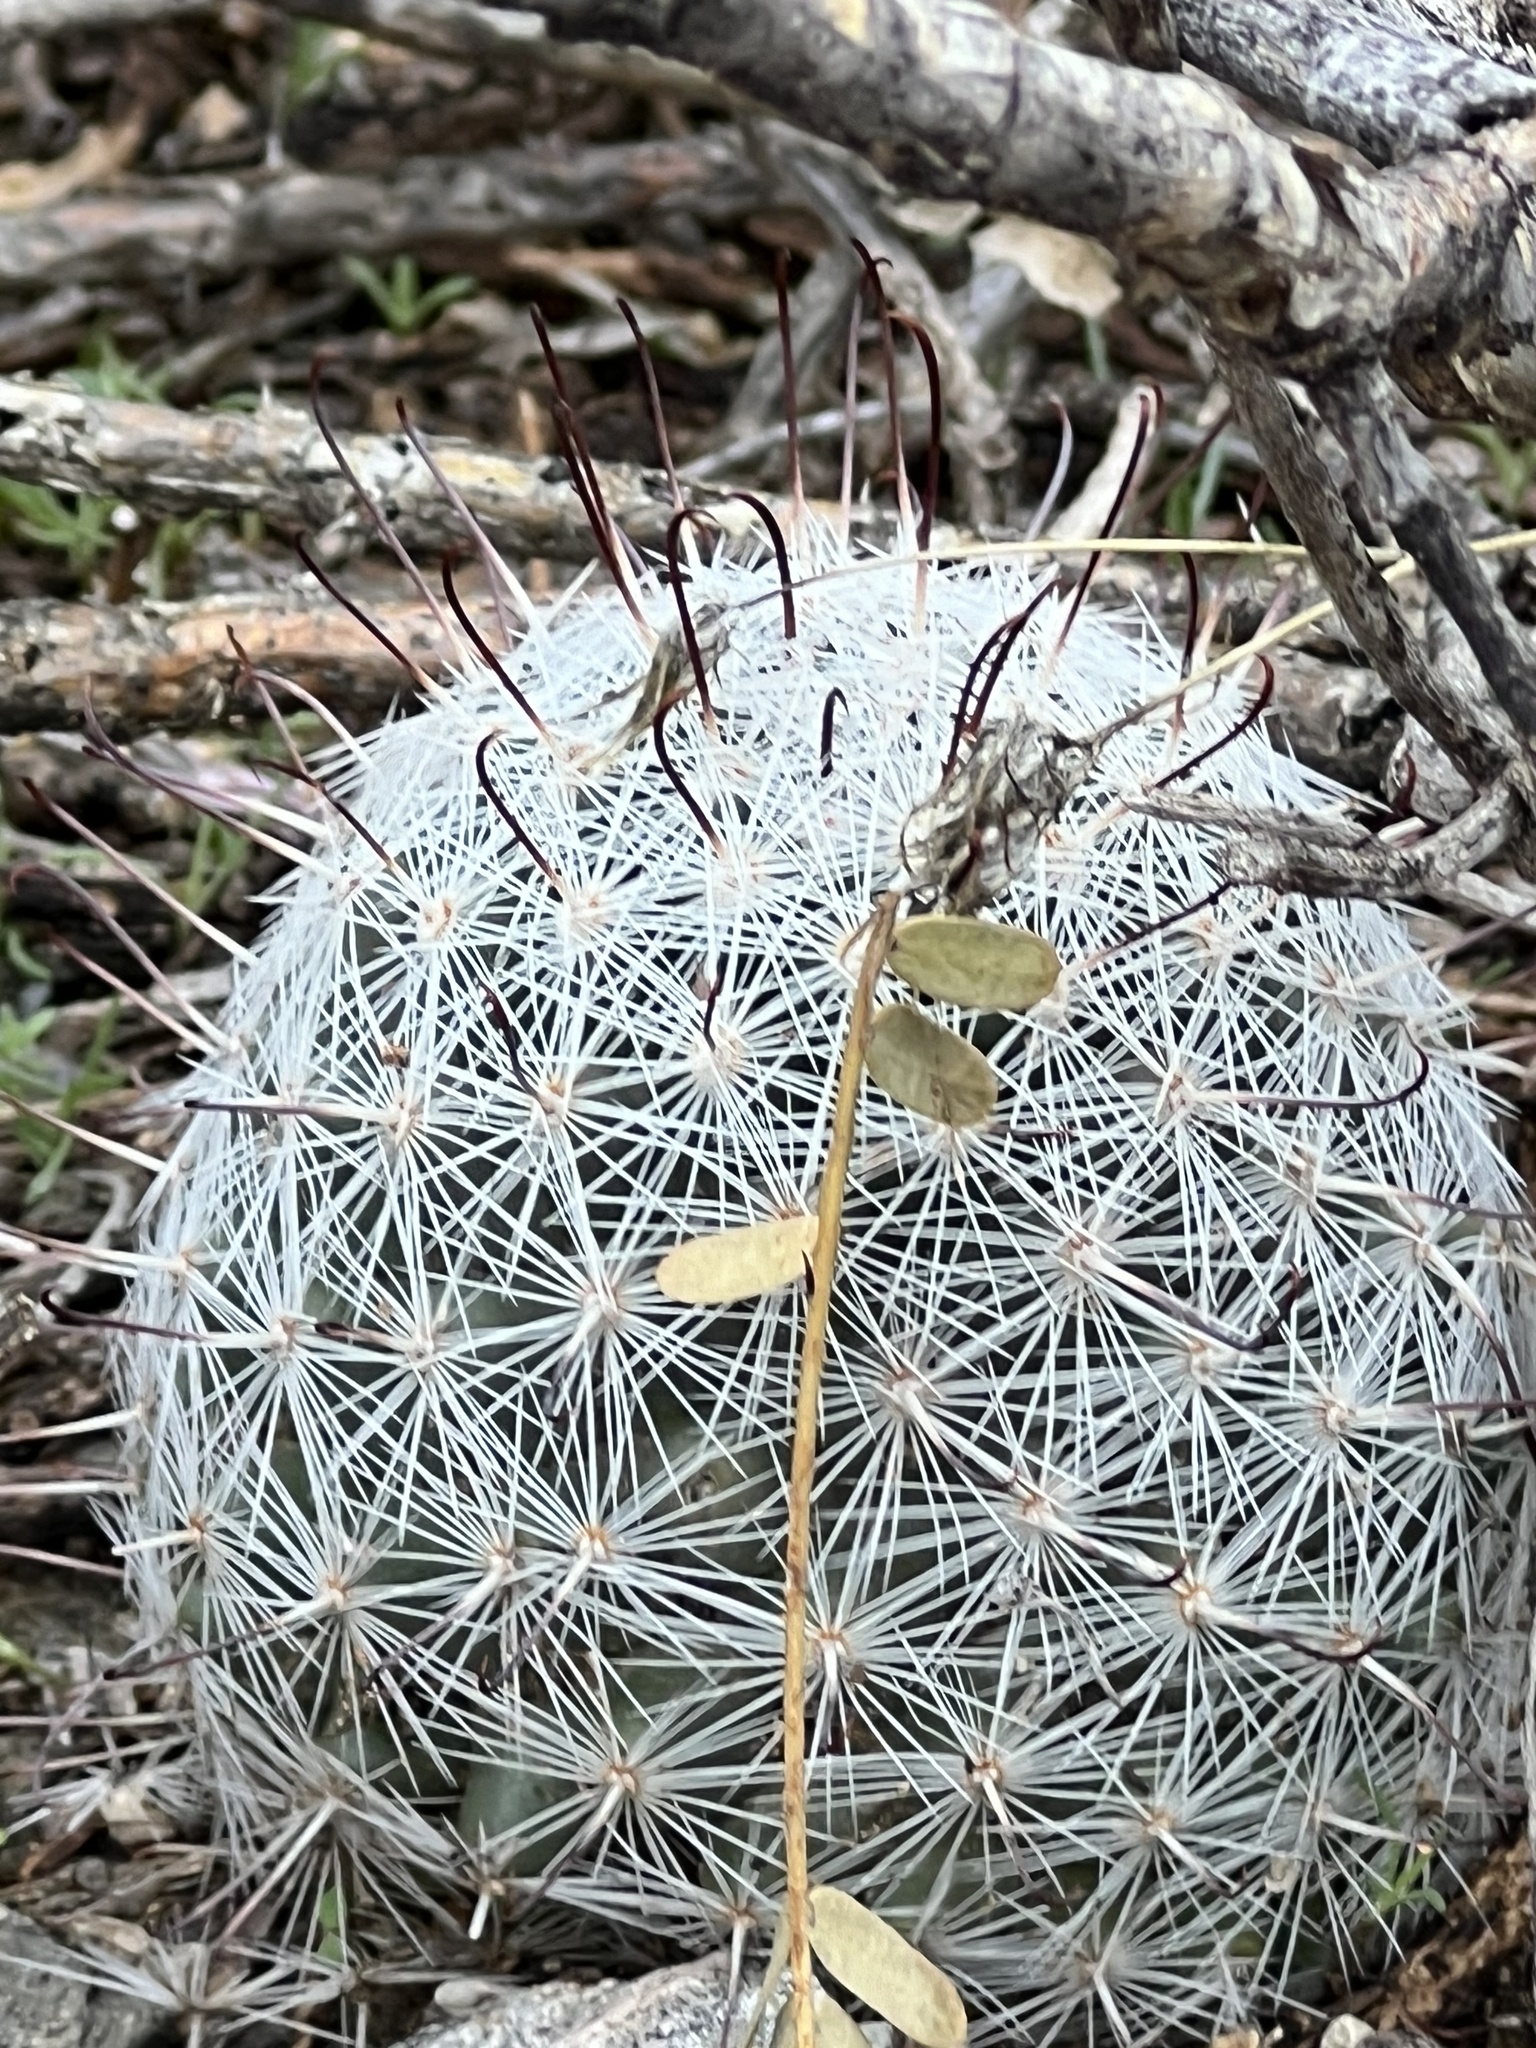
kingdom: Plantae
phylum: Tracheophyta
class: Magnoliopsida
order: Caryophyllales
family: Cactaceae
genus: Cochemiea
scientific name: Cochemiea grahamii
